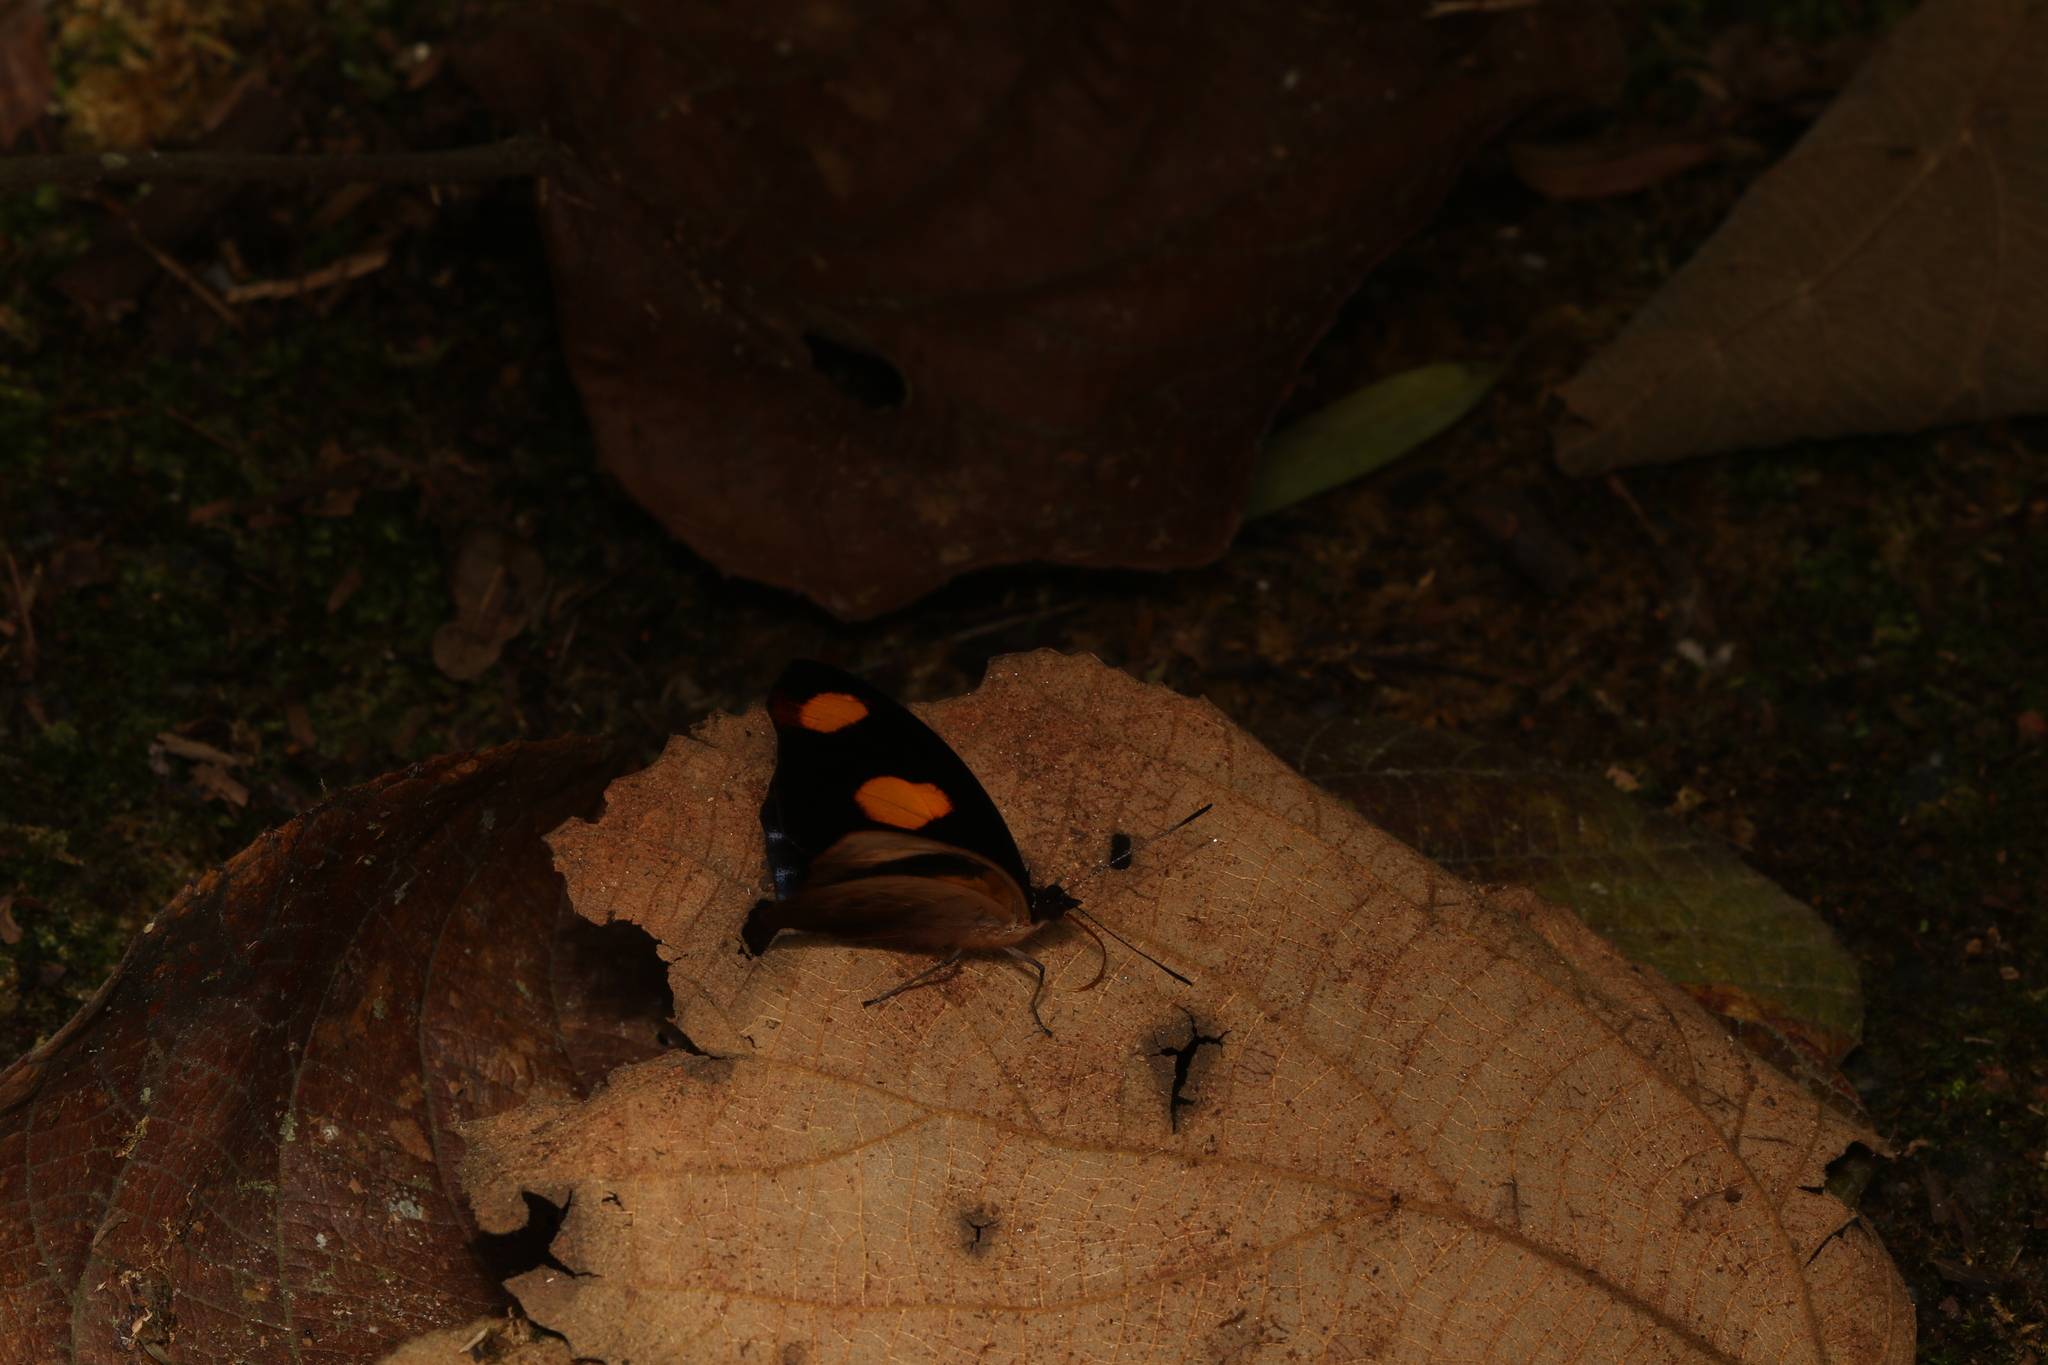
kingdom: Animalia
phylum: Arthropoda
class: Insecta
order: Lepidoptera
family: Nymphalidae
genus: Catonephele
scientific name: Catonephele numilia
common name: Blue-frosted banner
